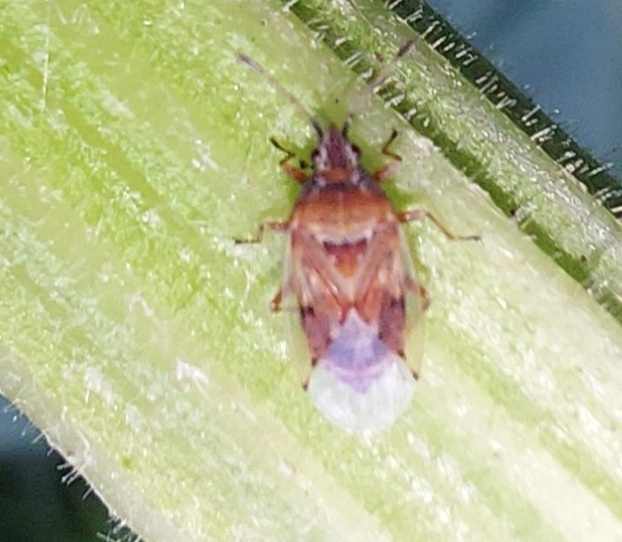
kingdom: Animalia
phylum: Arthropoda
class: Insecta
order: Hemiptera
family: Lygaeidae
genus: Kleidocerys
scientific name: Kleidocerys resedae
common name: Birch catkin bug
